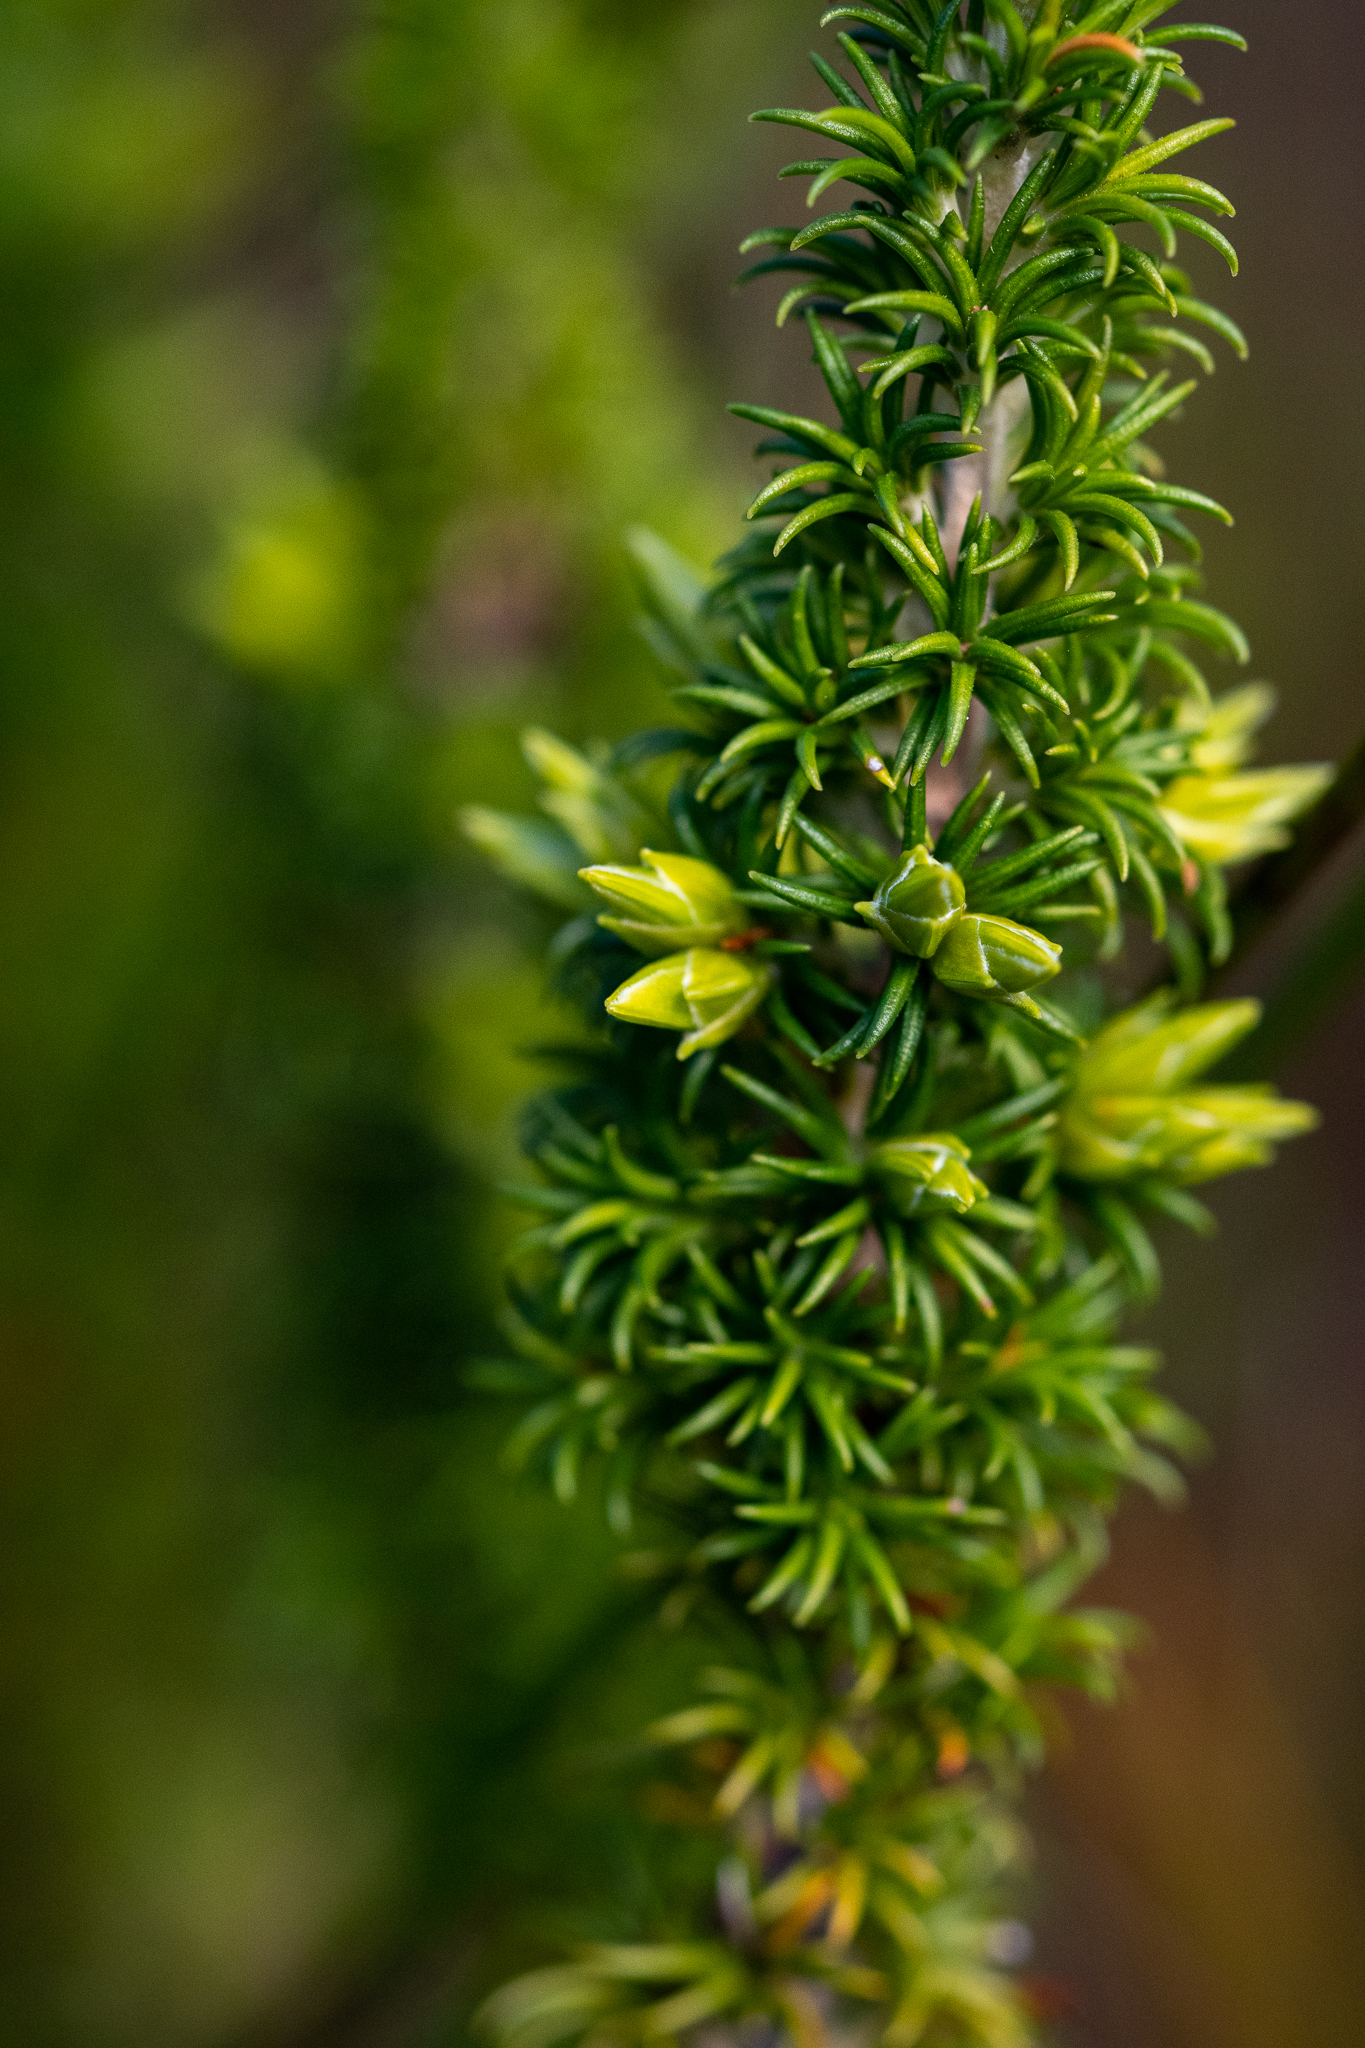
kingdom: Plantae
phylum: Tracheophyta
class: Magnoliopsida
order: Ericales
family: Ericaceae
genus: Erica
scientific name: Erica coccinea
